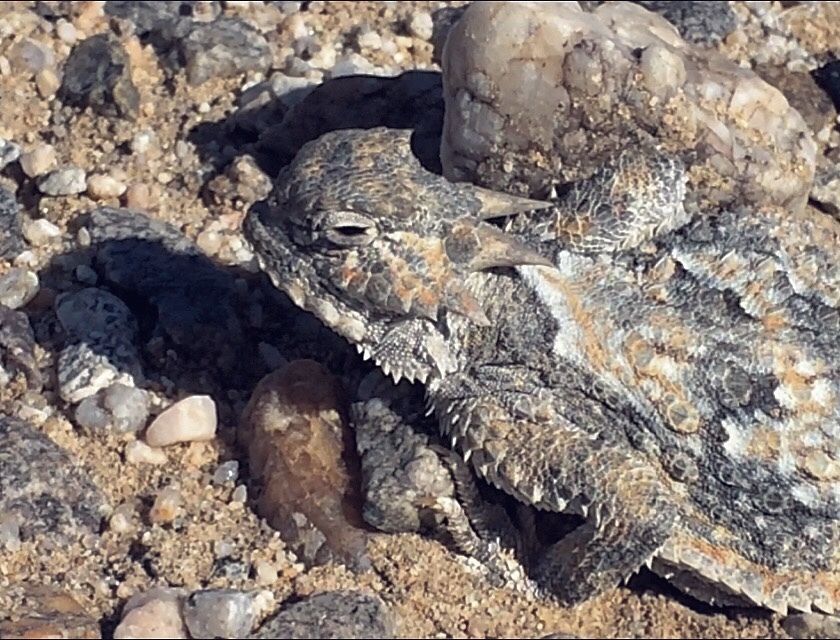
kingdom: Animalia
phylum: Chordata
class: Squamata
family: Phrynosomatidae
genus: Phrynosoma
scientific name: Phrynosoma platyrhinos
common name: Desert horned lizard
